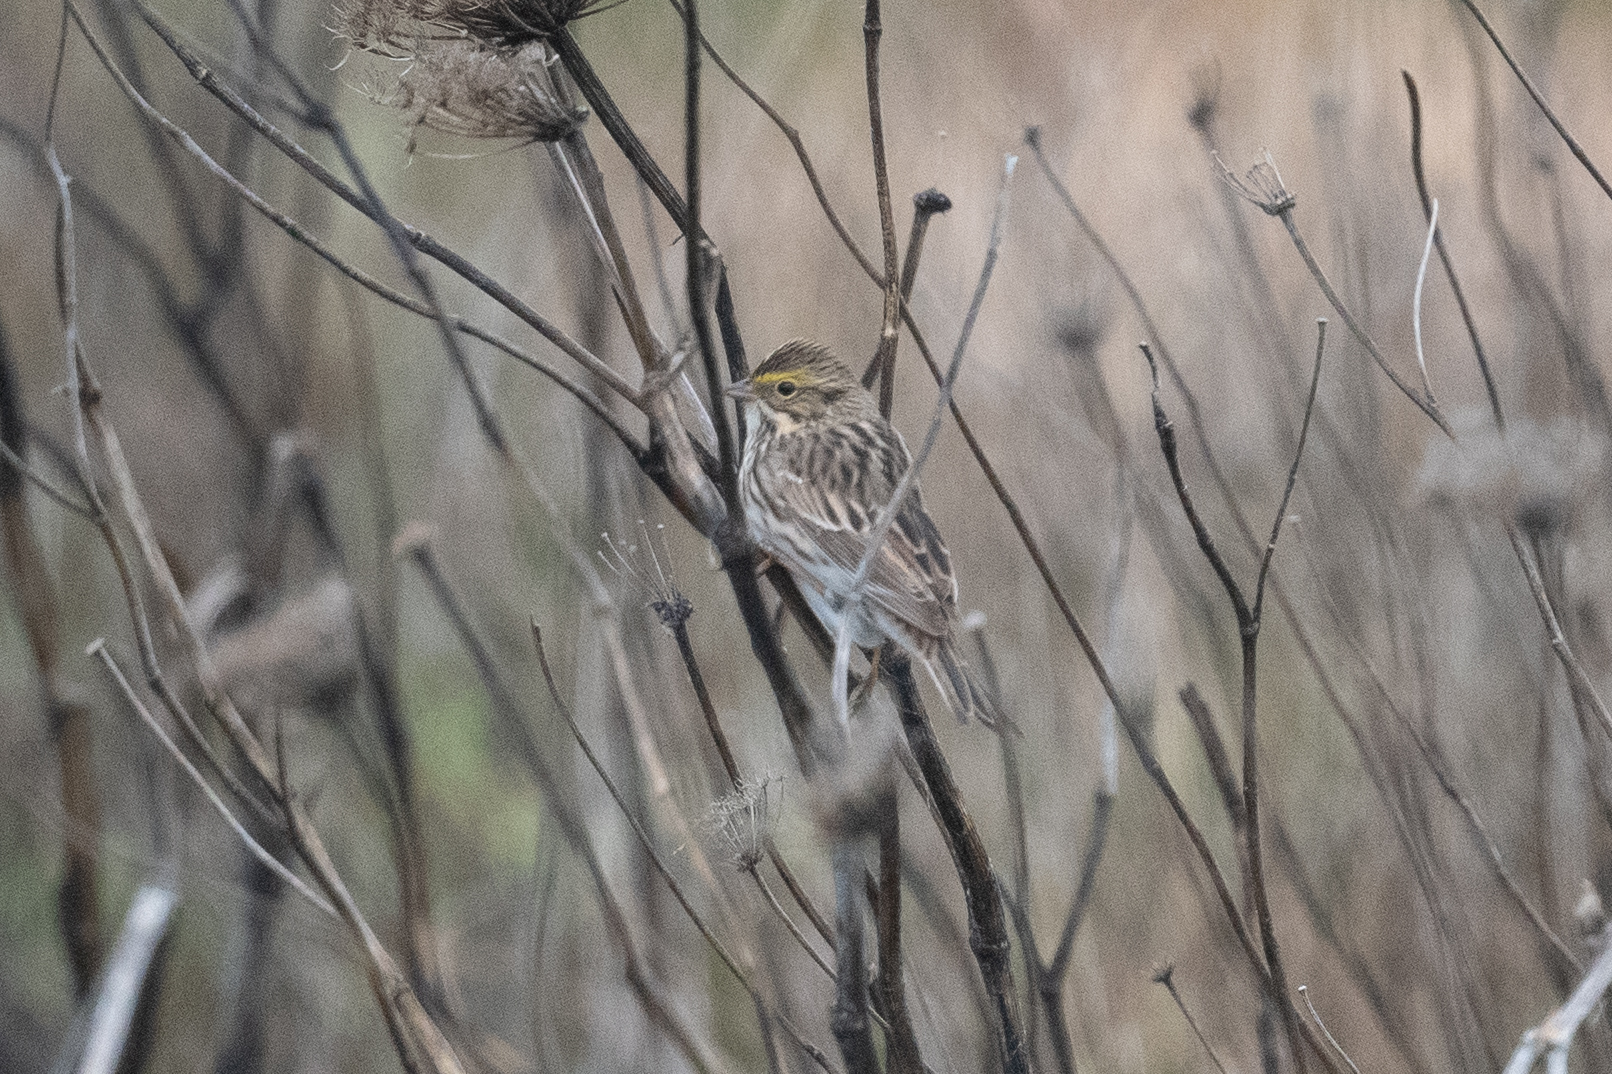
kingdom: Animalia
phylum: Chordata
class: Aves
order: Passeriformes
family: Passerellidae
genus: Passerculus
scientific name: Passerculus sandwichensis
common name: Savannah sparrow
